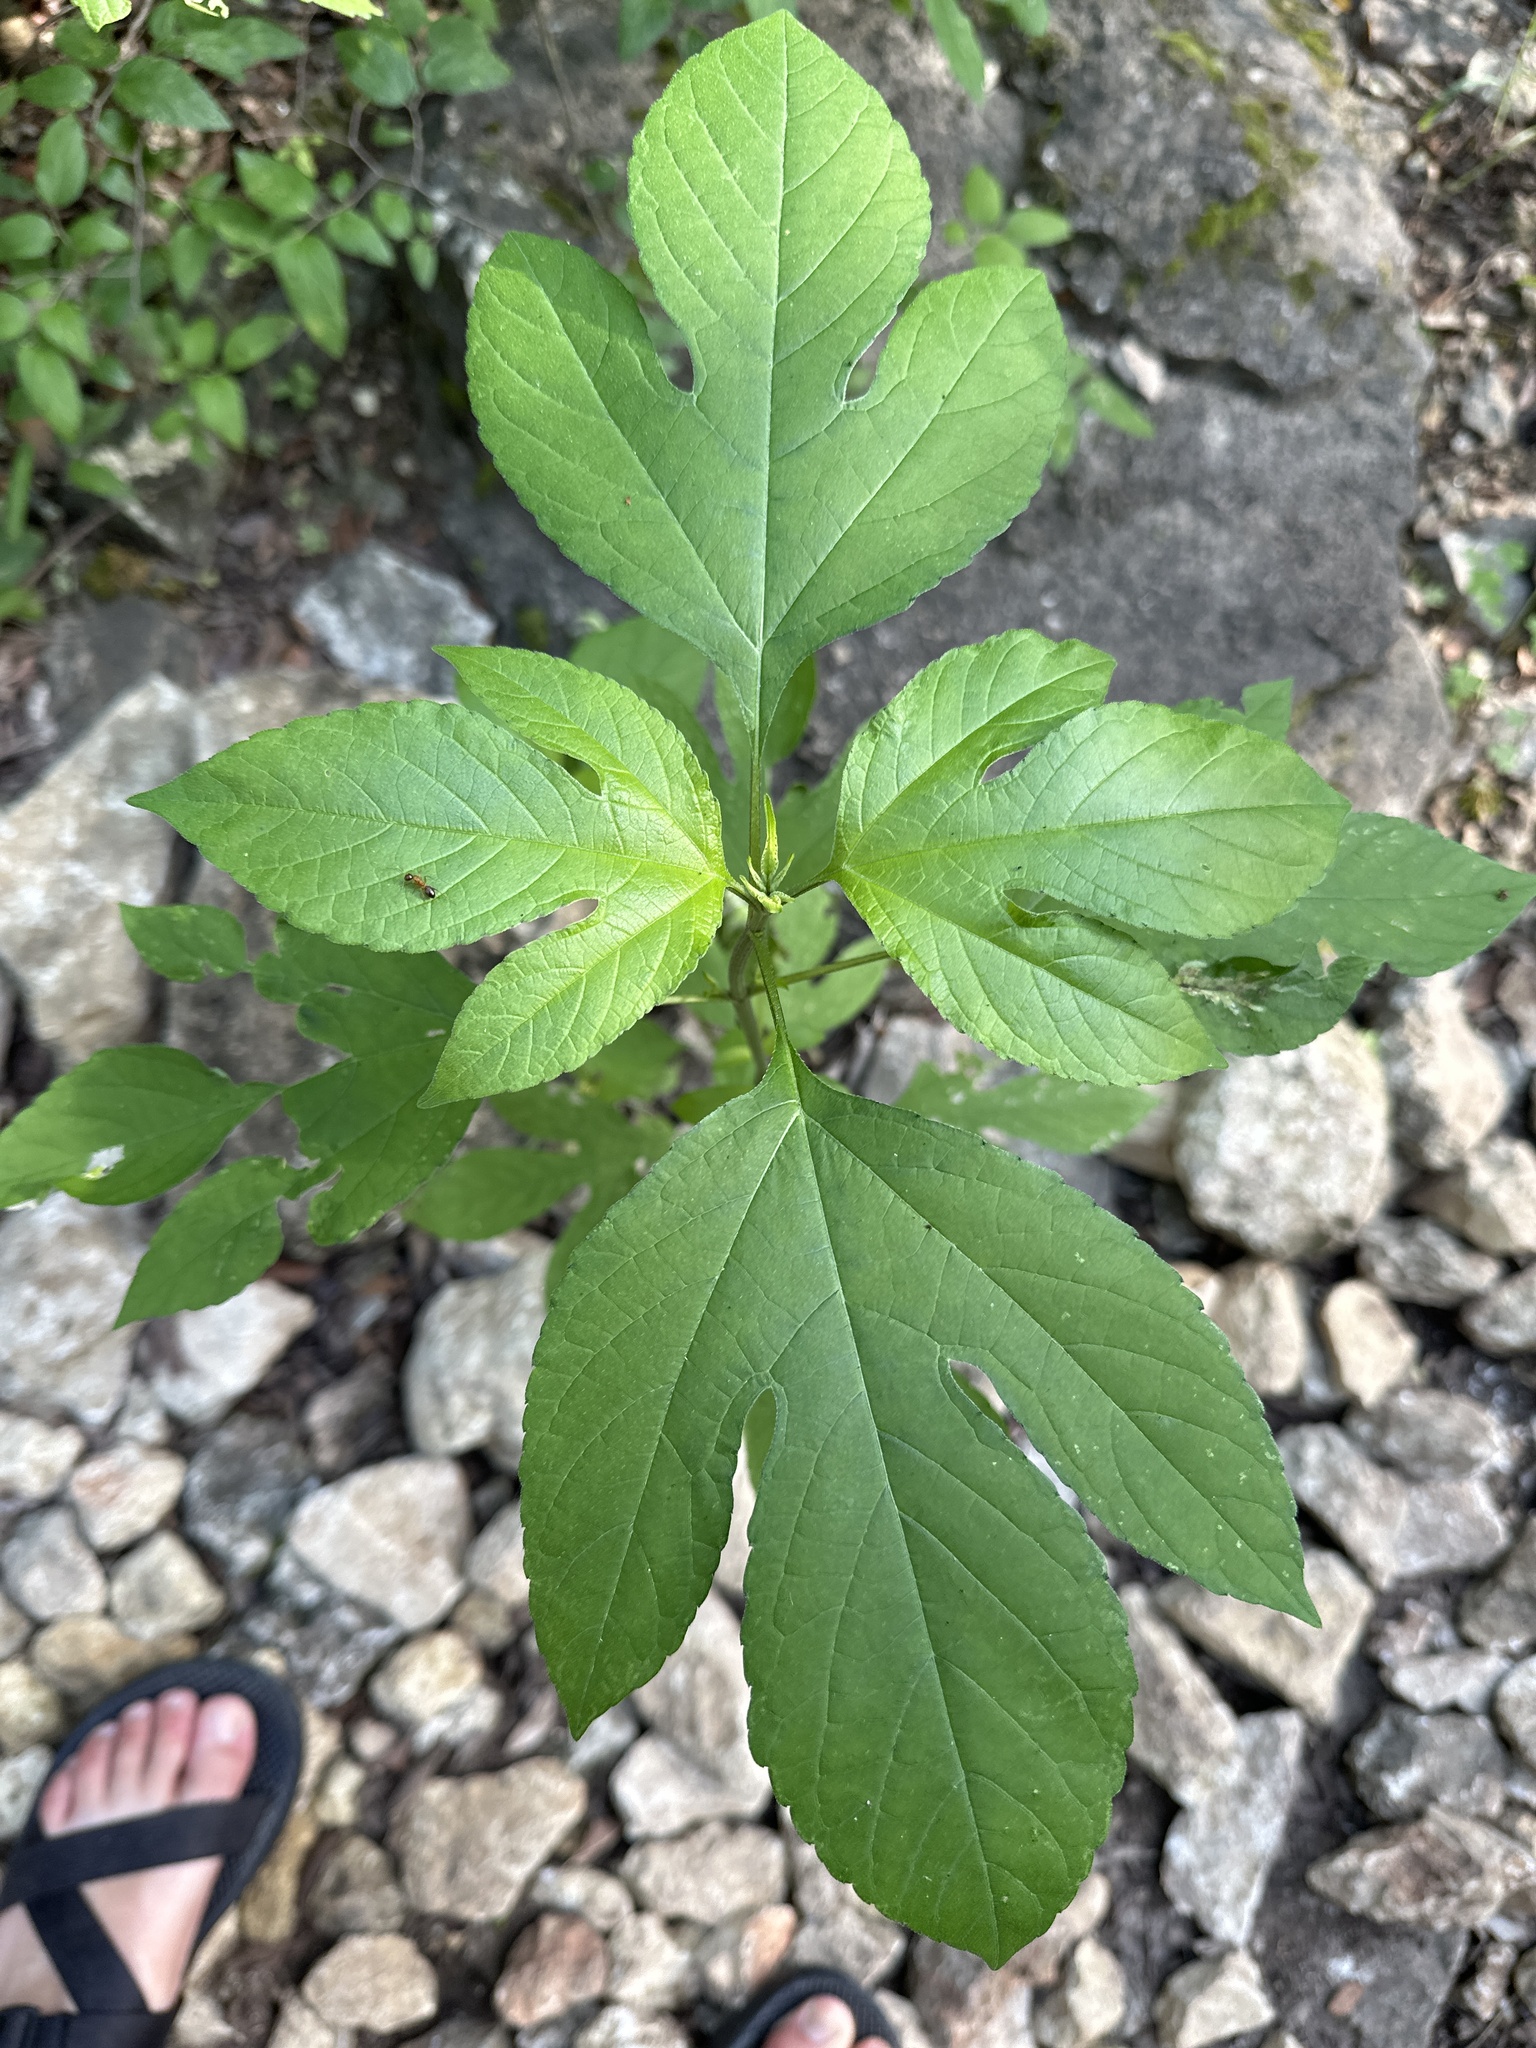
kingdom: Plantae
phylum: Tracheophyta
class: Magnoliopsida
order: Asterales
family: Asteraceae
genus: Ambrosia
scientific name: Ambrosia trifida
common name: Giant ragweed
